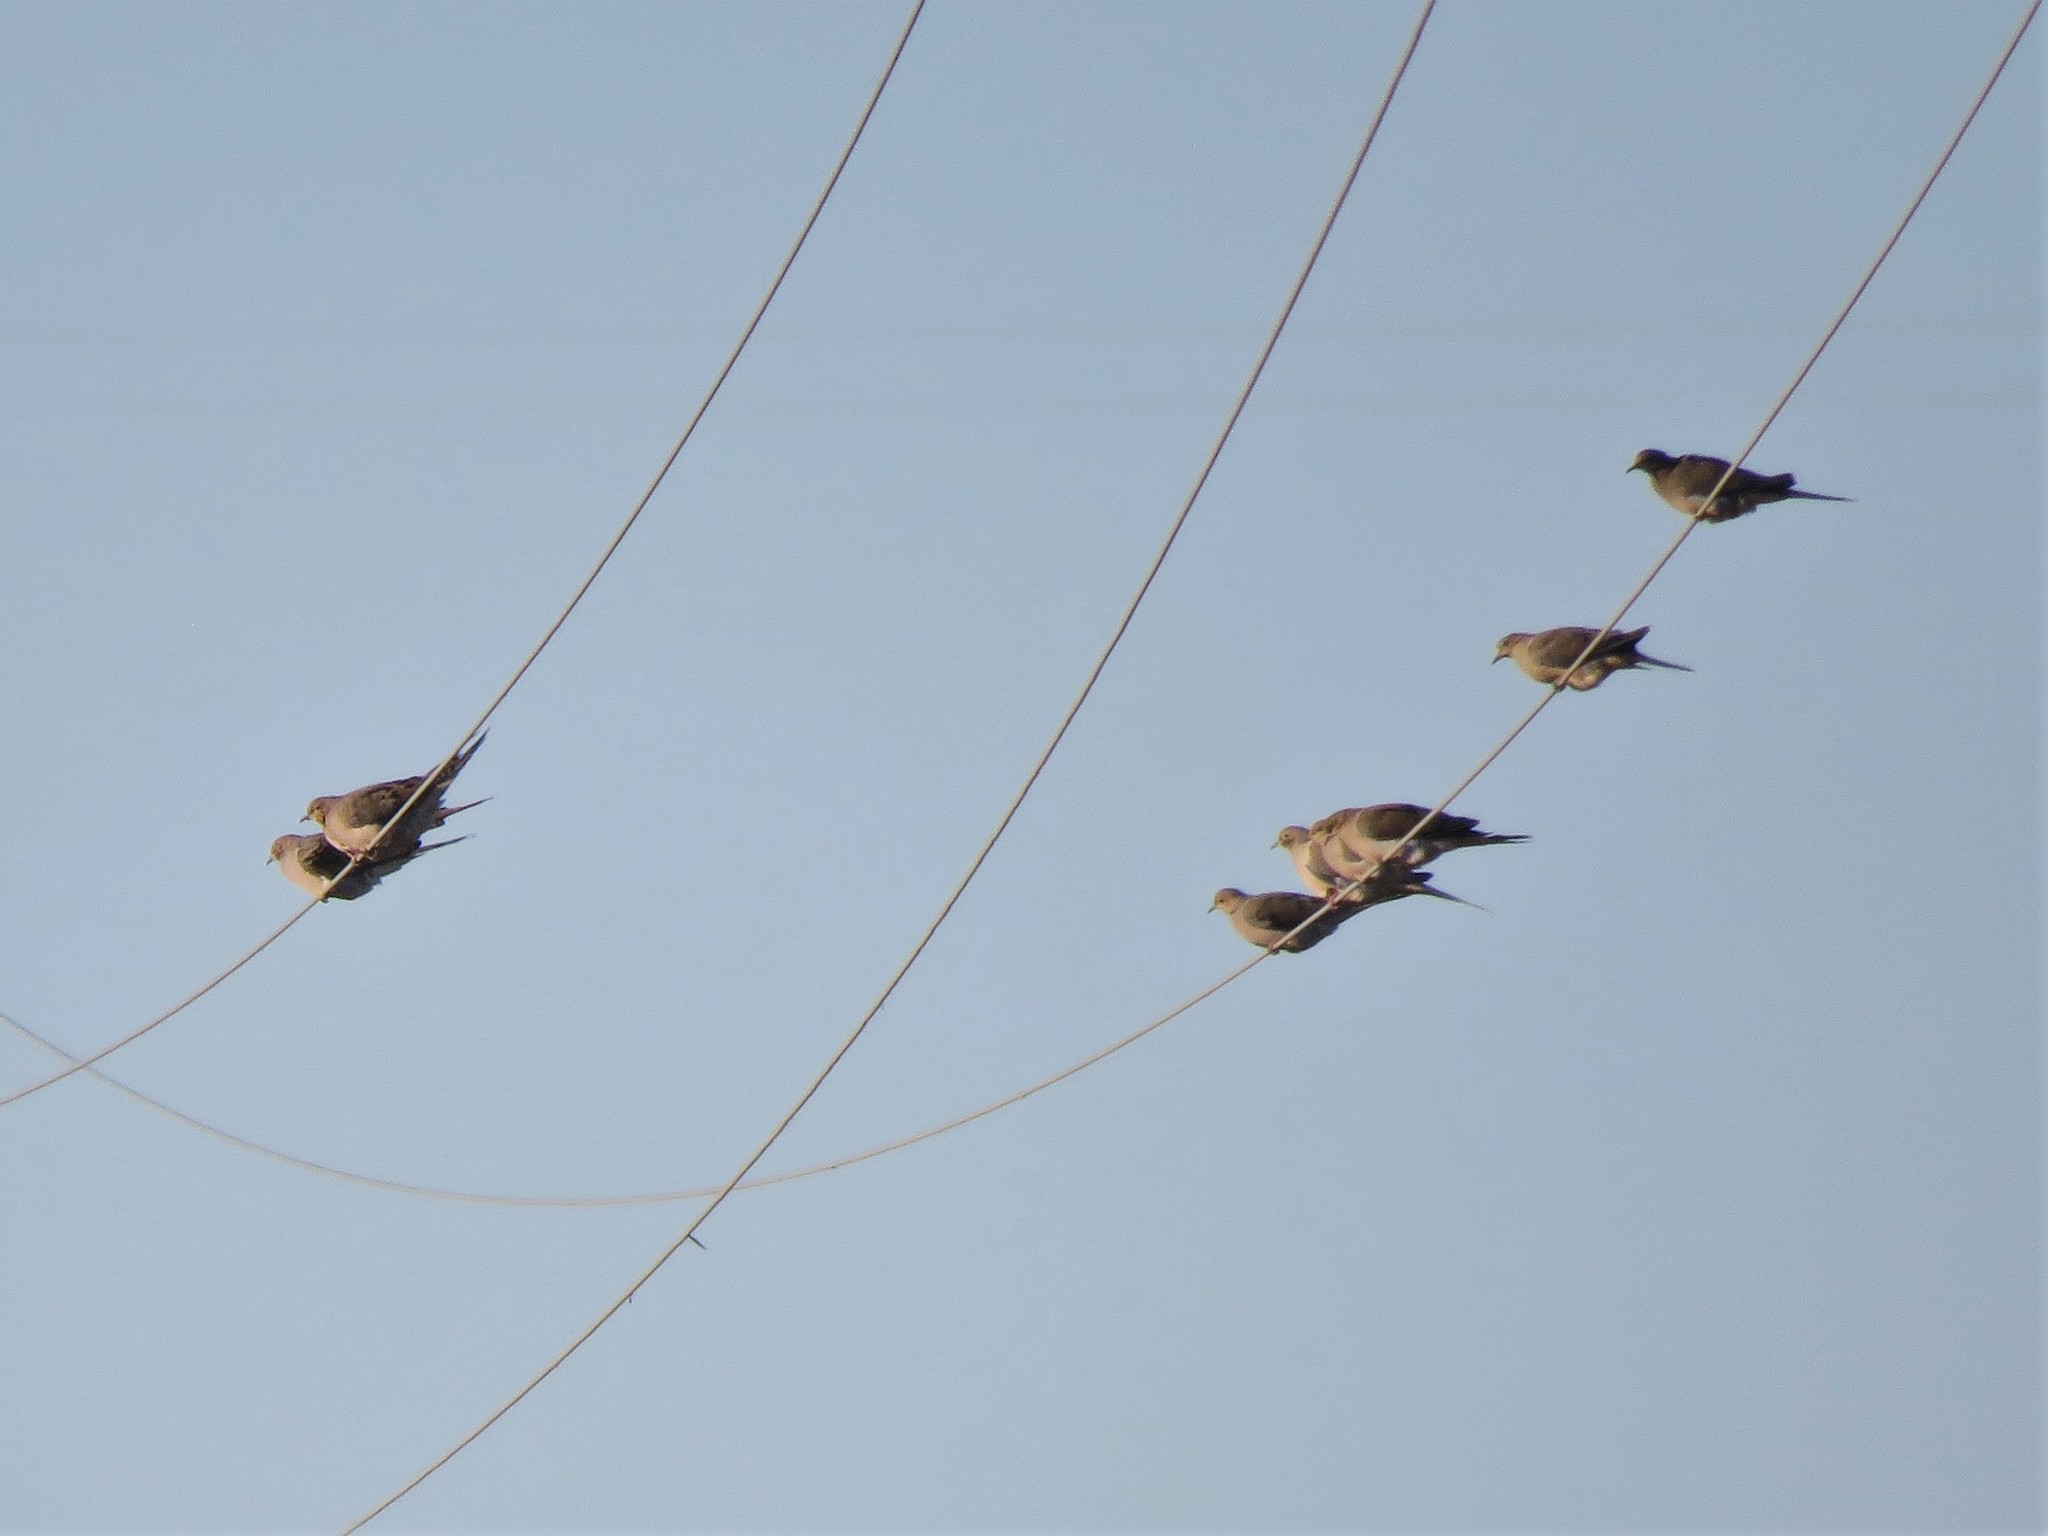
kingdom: Animalia
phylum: Chordata
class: Aves
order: Columbiformes
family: Columbidae
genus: Zenaida
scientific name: Zenaida macroura
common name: Mourning dove
